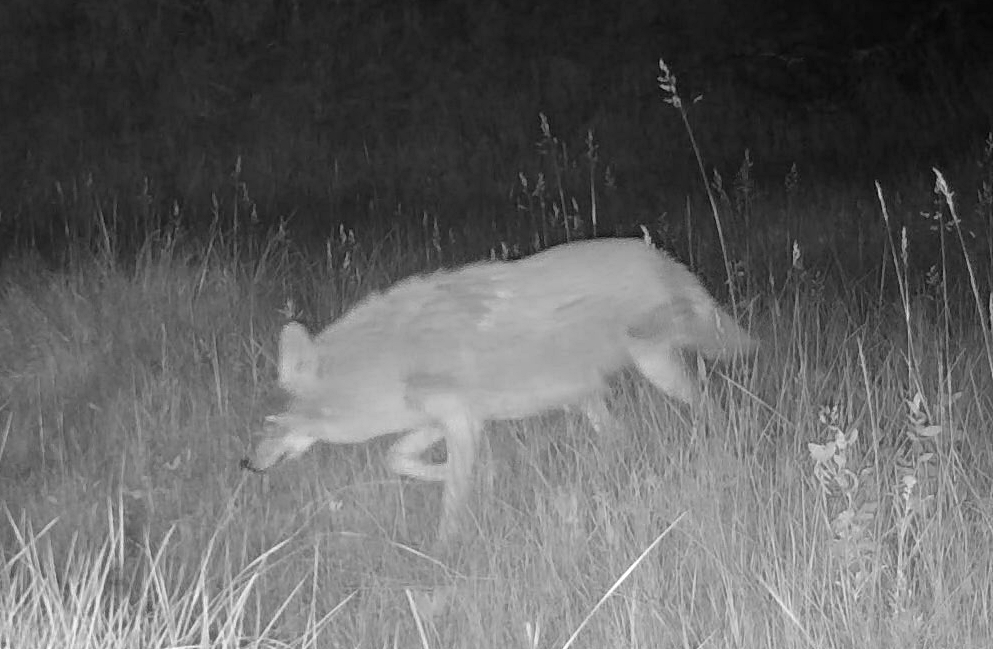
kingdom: Animalia
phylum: Chordata
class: Mammalia
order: Carnivora
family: Canidae
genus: Canis
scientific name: Canis latrans
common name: Coyote
